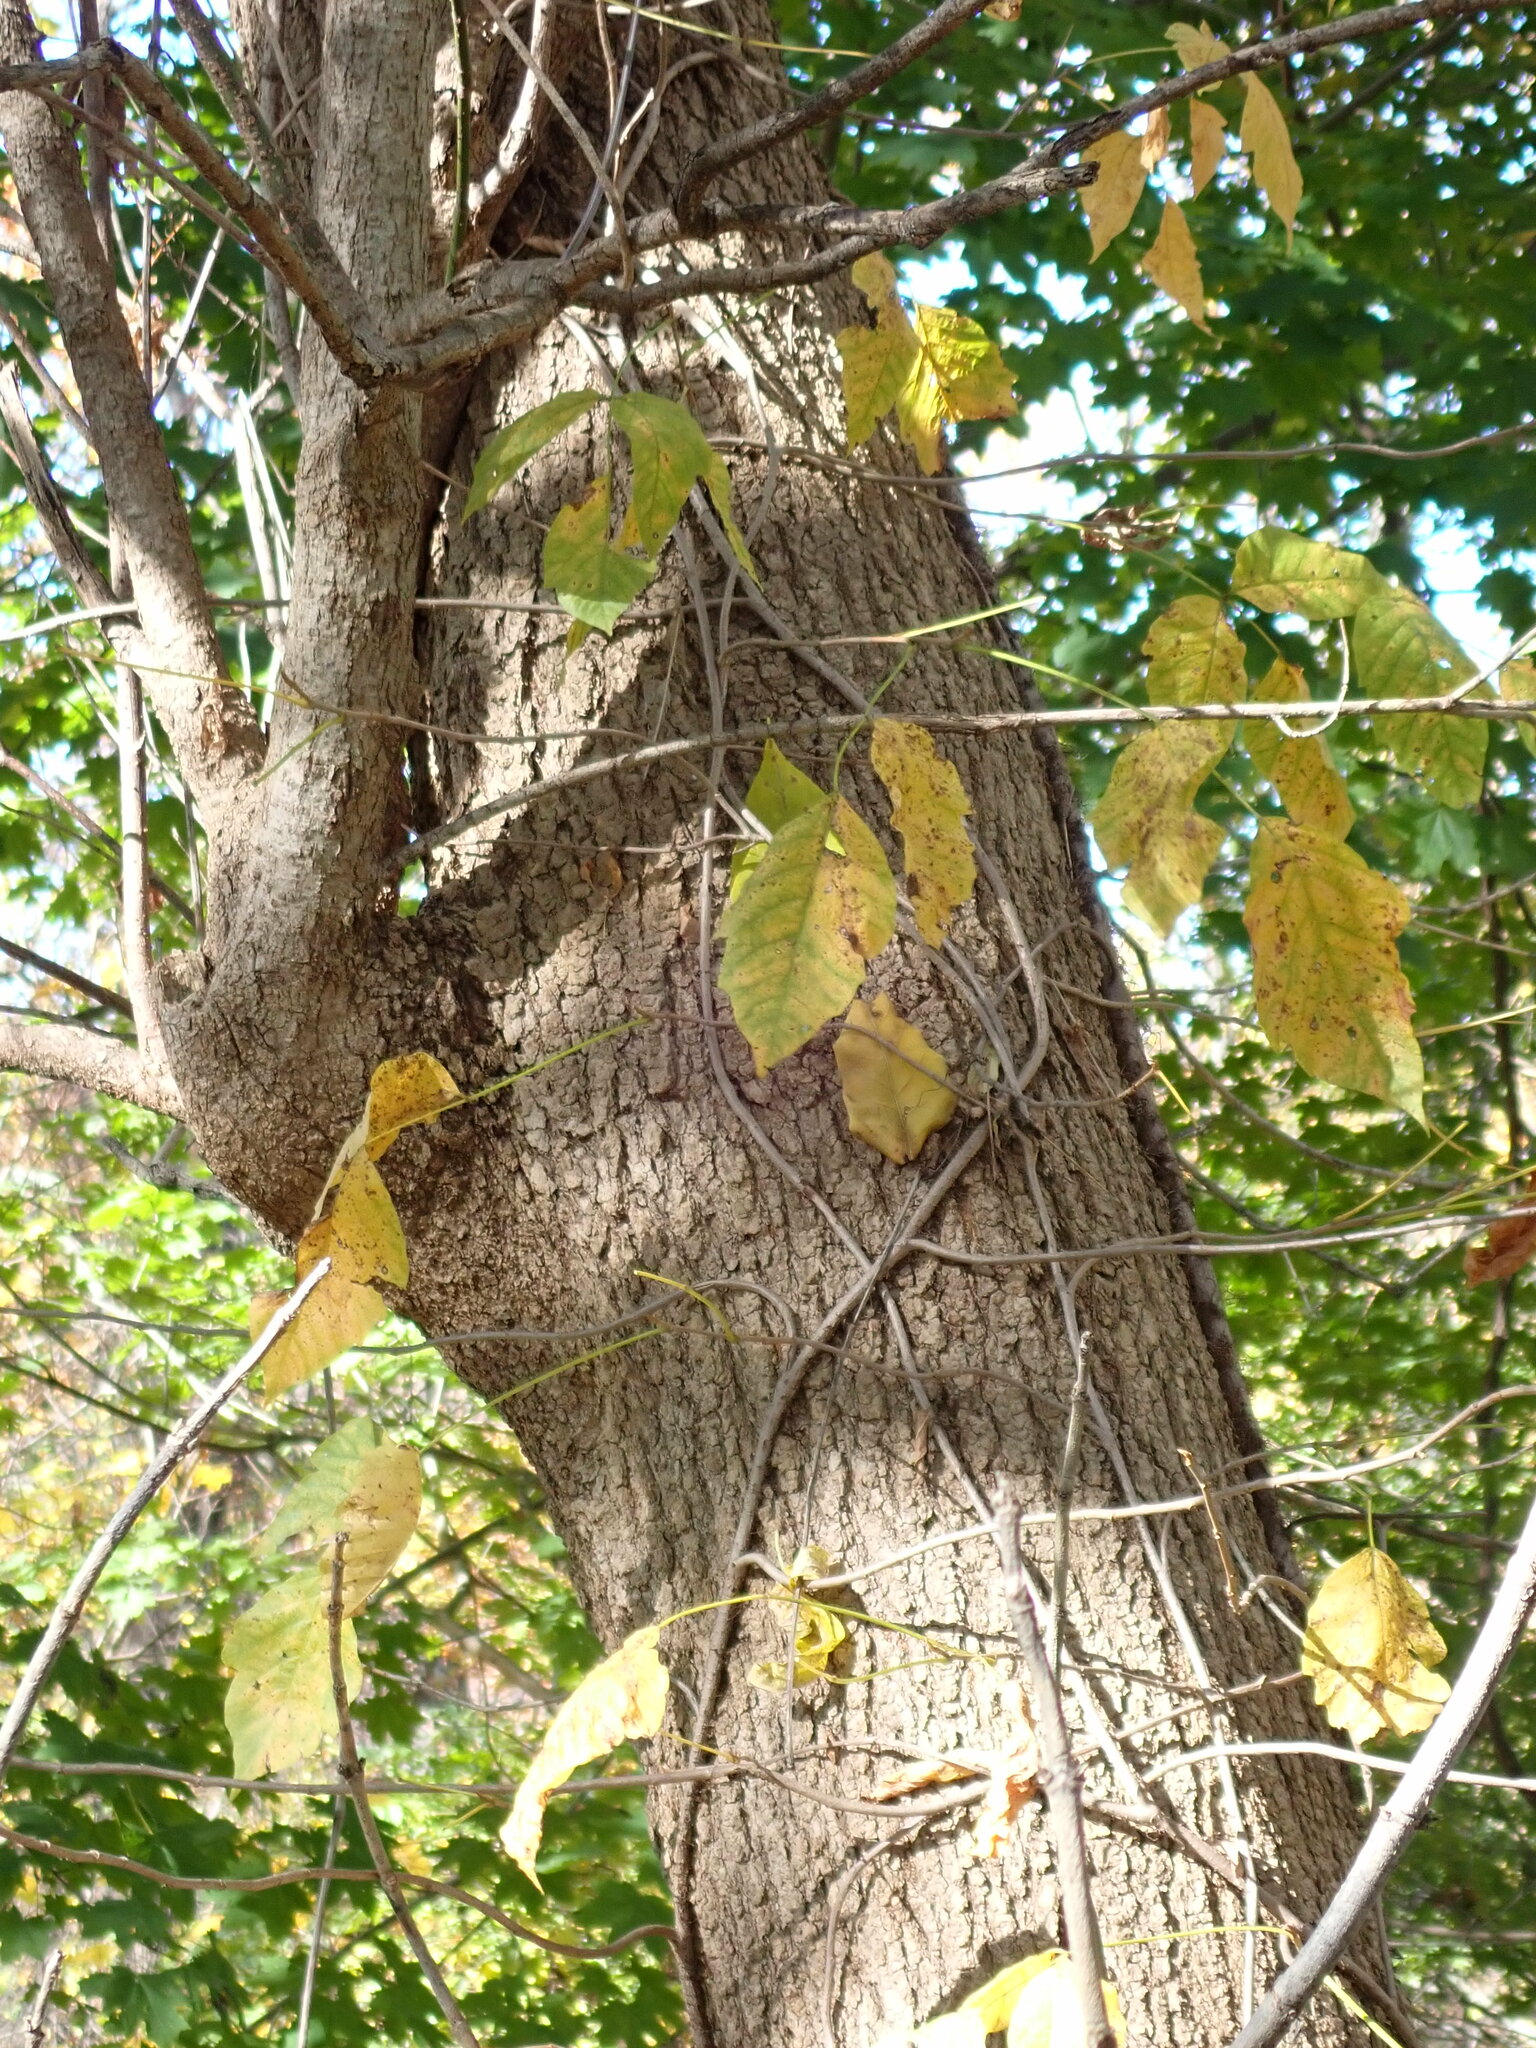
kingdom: Plantae
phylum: Tracheophyta
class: Magnoliopsida
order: Sapindales
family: Anacardiaceae
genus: Toxicodendron
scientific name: Toxicodendron radicans
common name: Poison ivy
